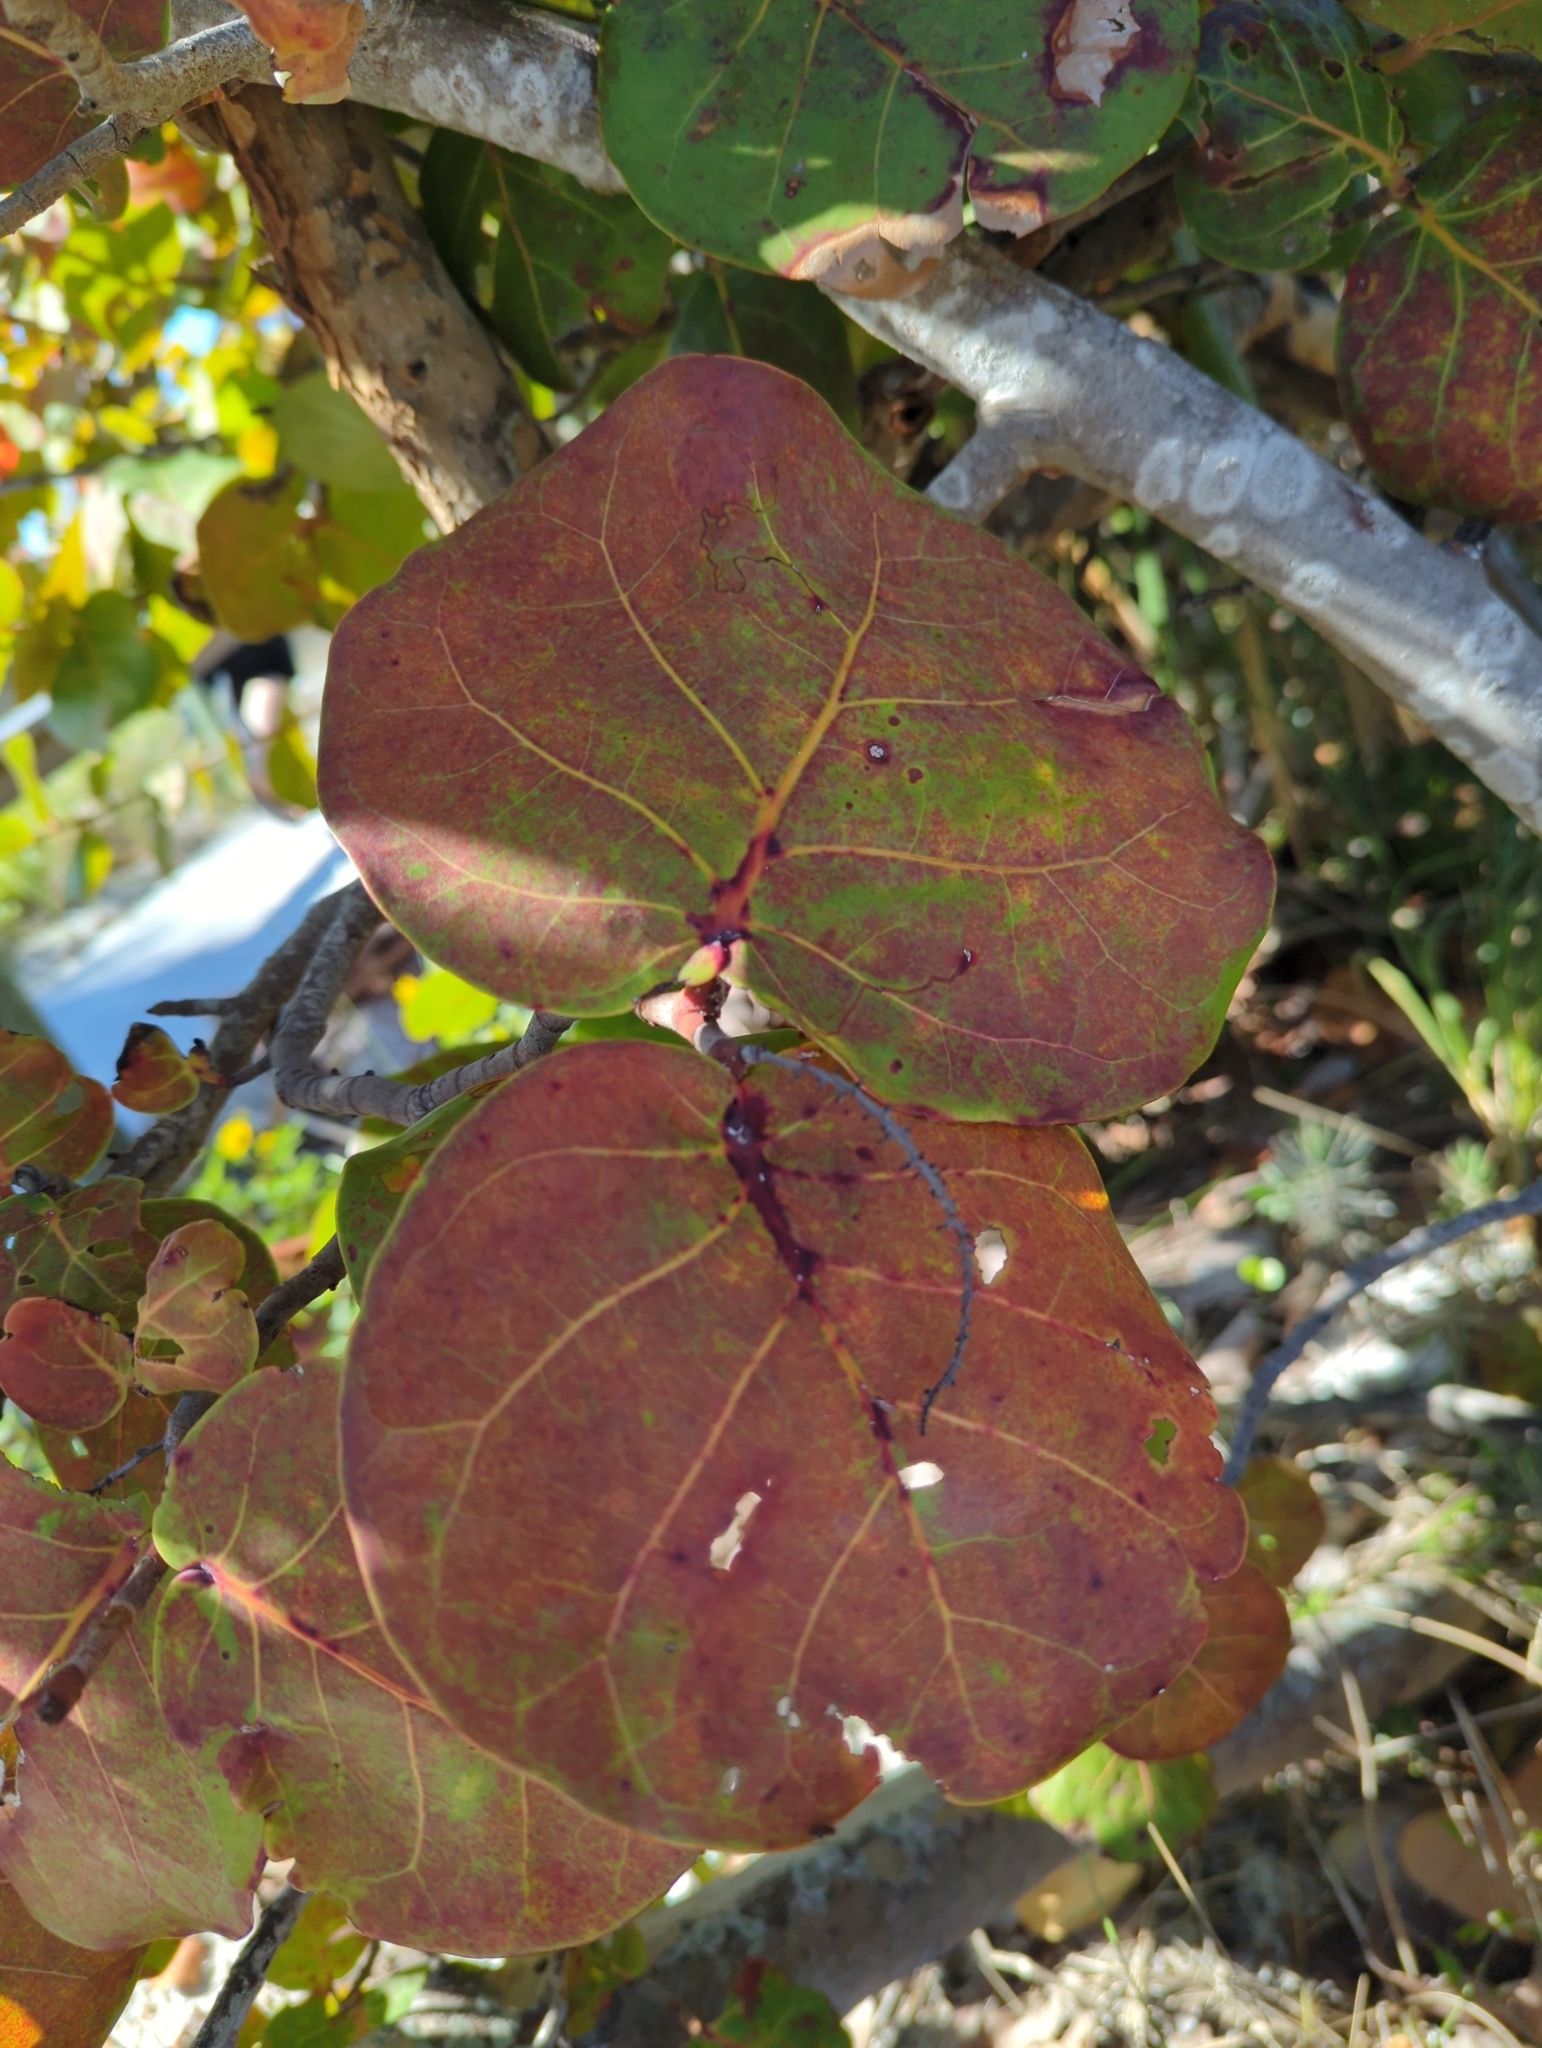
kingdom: Plantae
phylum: Tracheophyta
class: Magnoliopsida
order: Caryophyllales
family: Polygonaceae
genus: Coccoloba
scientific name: Coccoloba uvifera
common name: Seagrape
